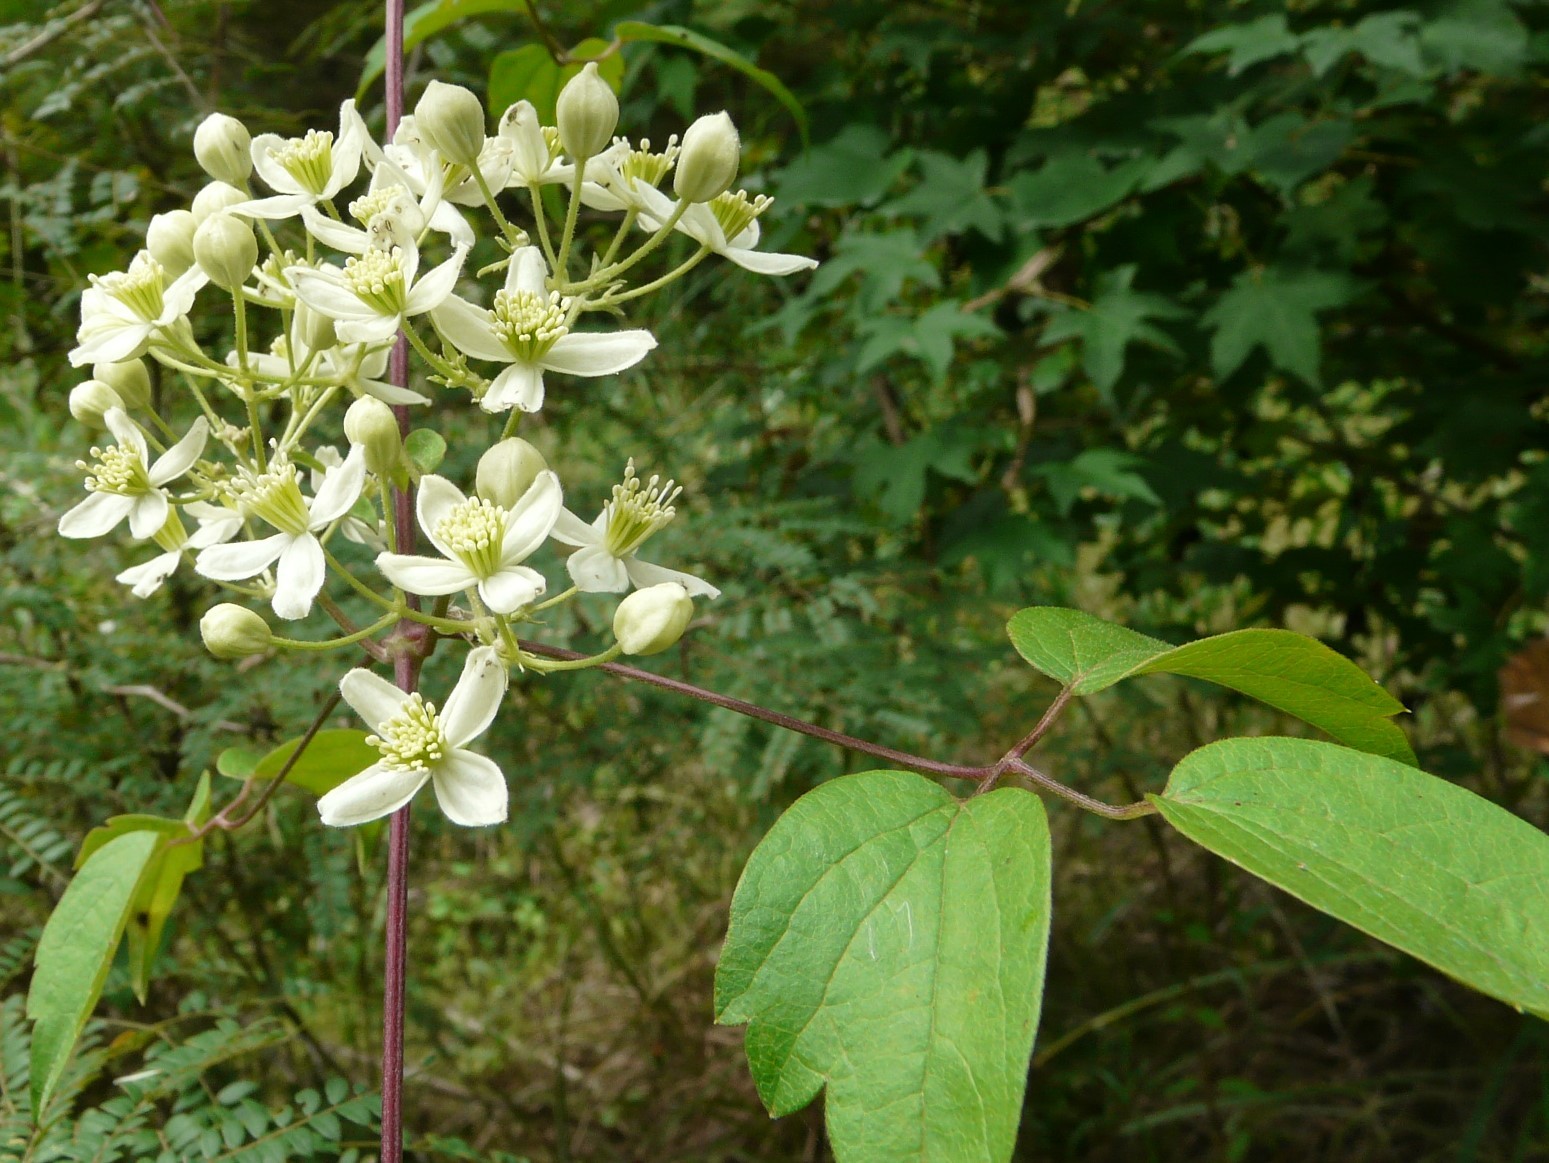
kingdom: Plantae
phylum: Tracheophyta
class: Magnoliopsida
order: Ranunculales
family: Ranunculaceae
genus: Clematis
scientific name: Clematis virginiana
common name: Virgin's-bower
